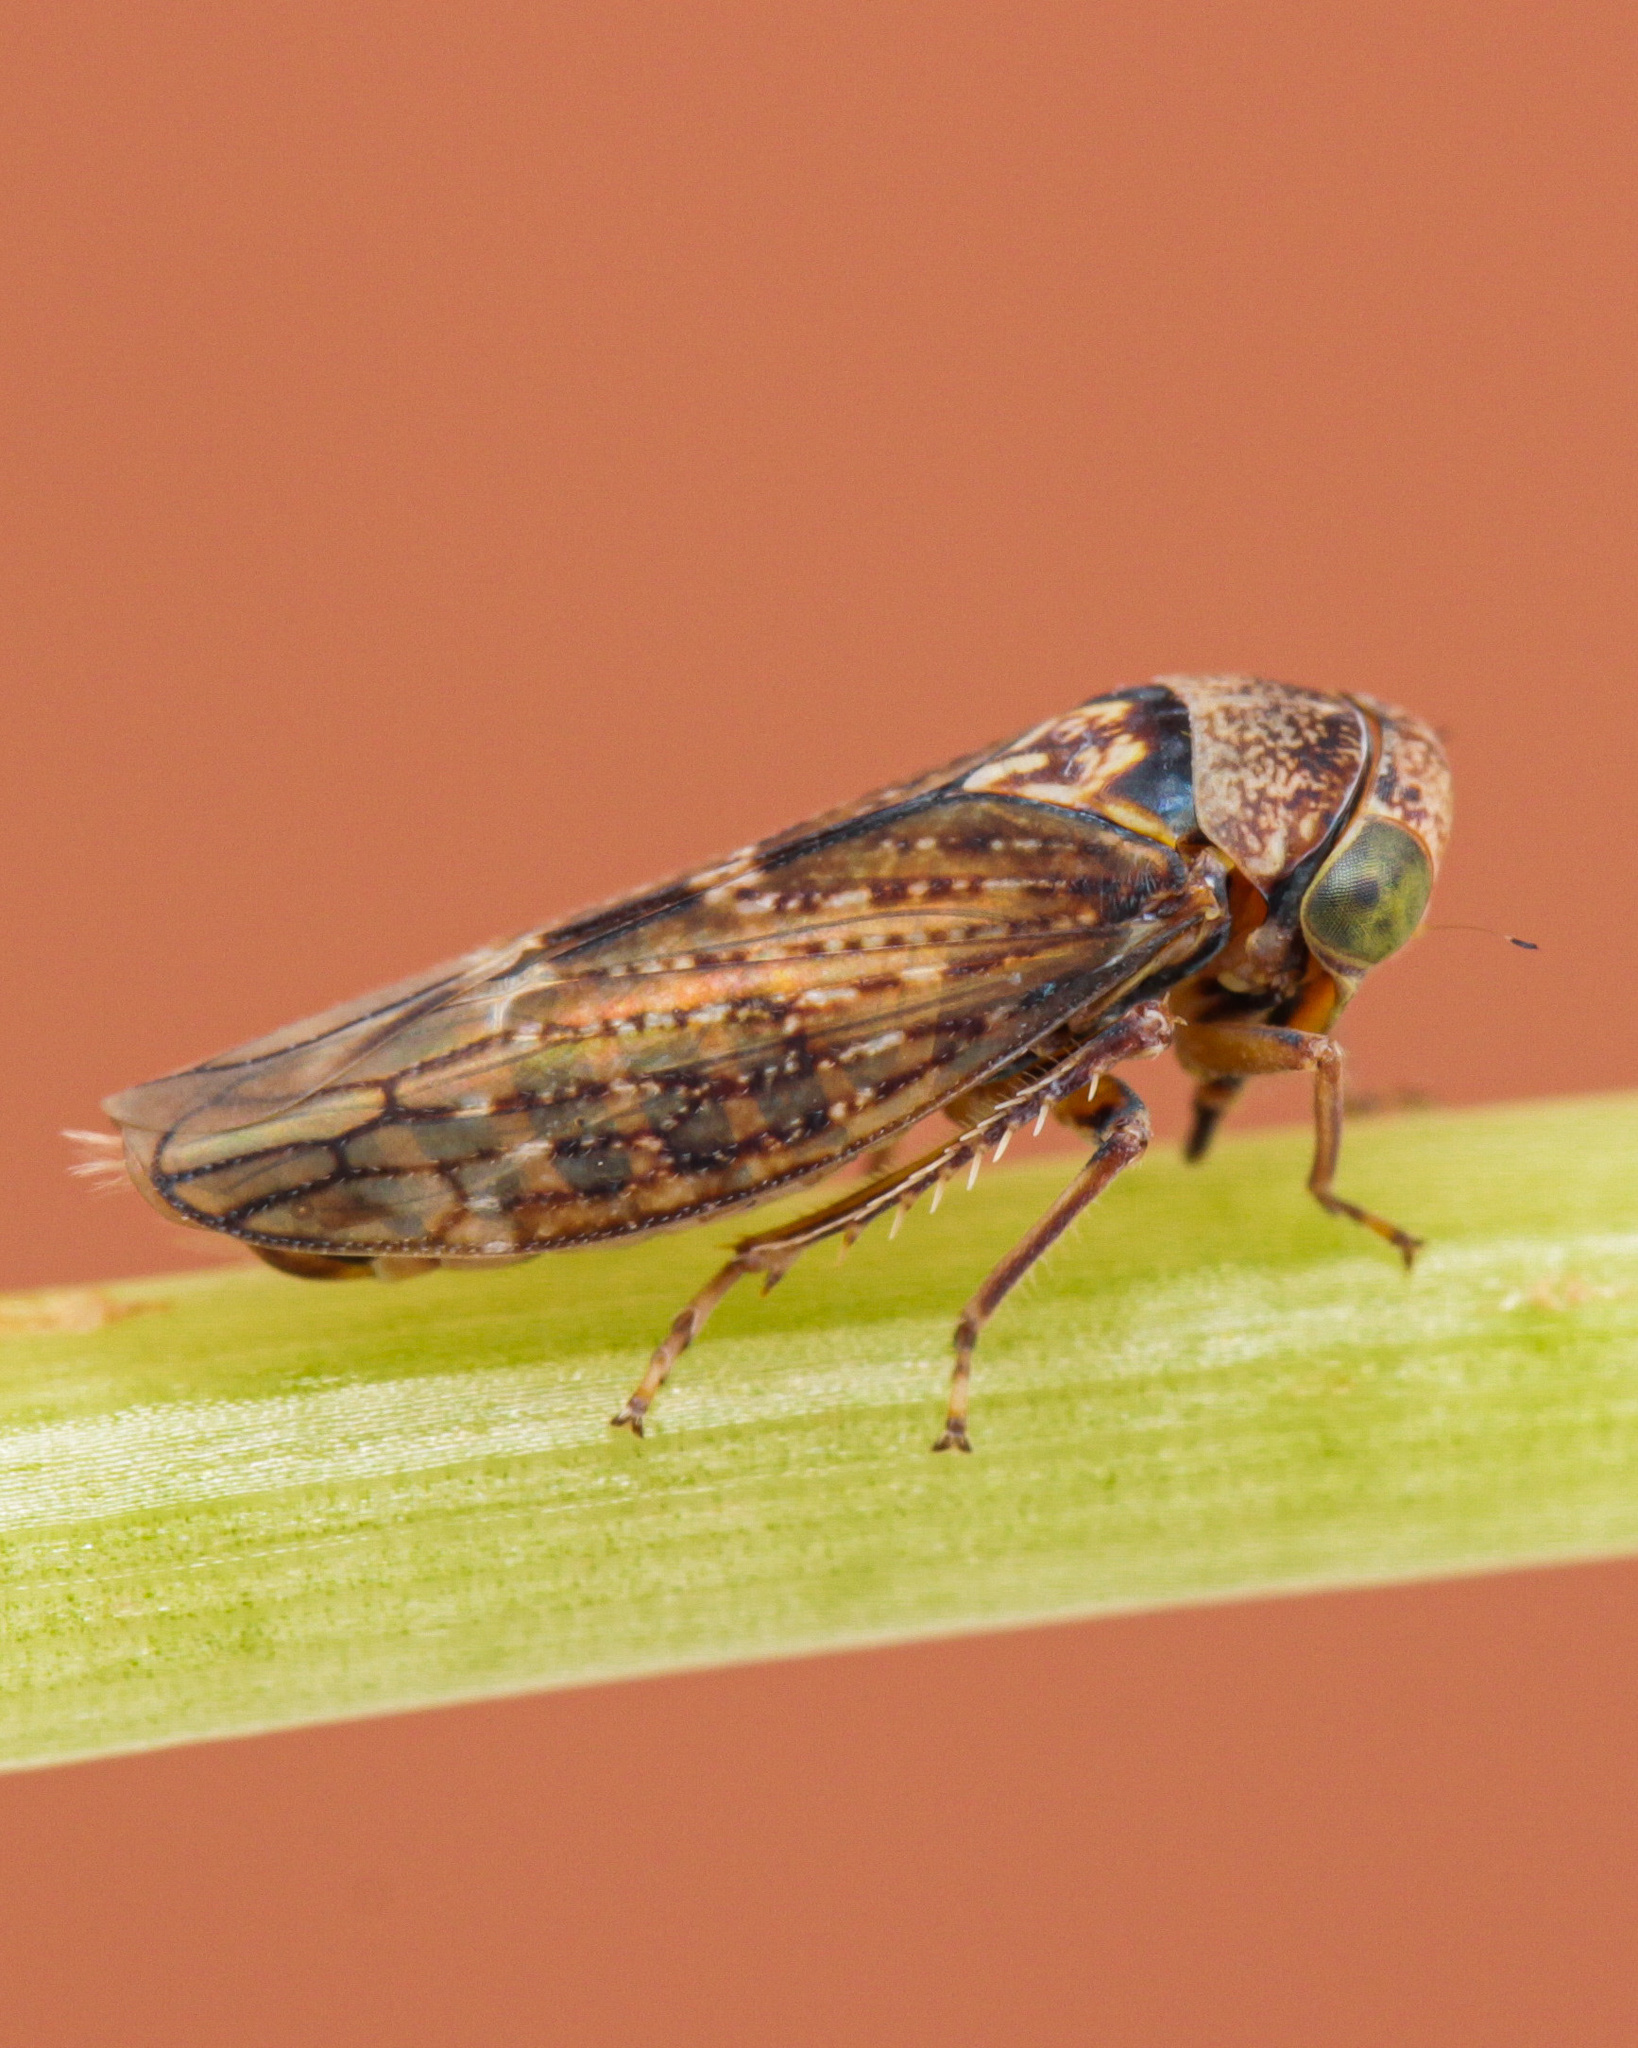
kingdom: Animalia
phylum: Arthropoda
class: Insecta
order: Hemiptera
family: Cicadellidae
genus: Acericerus
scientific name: Acericerus ribauti
